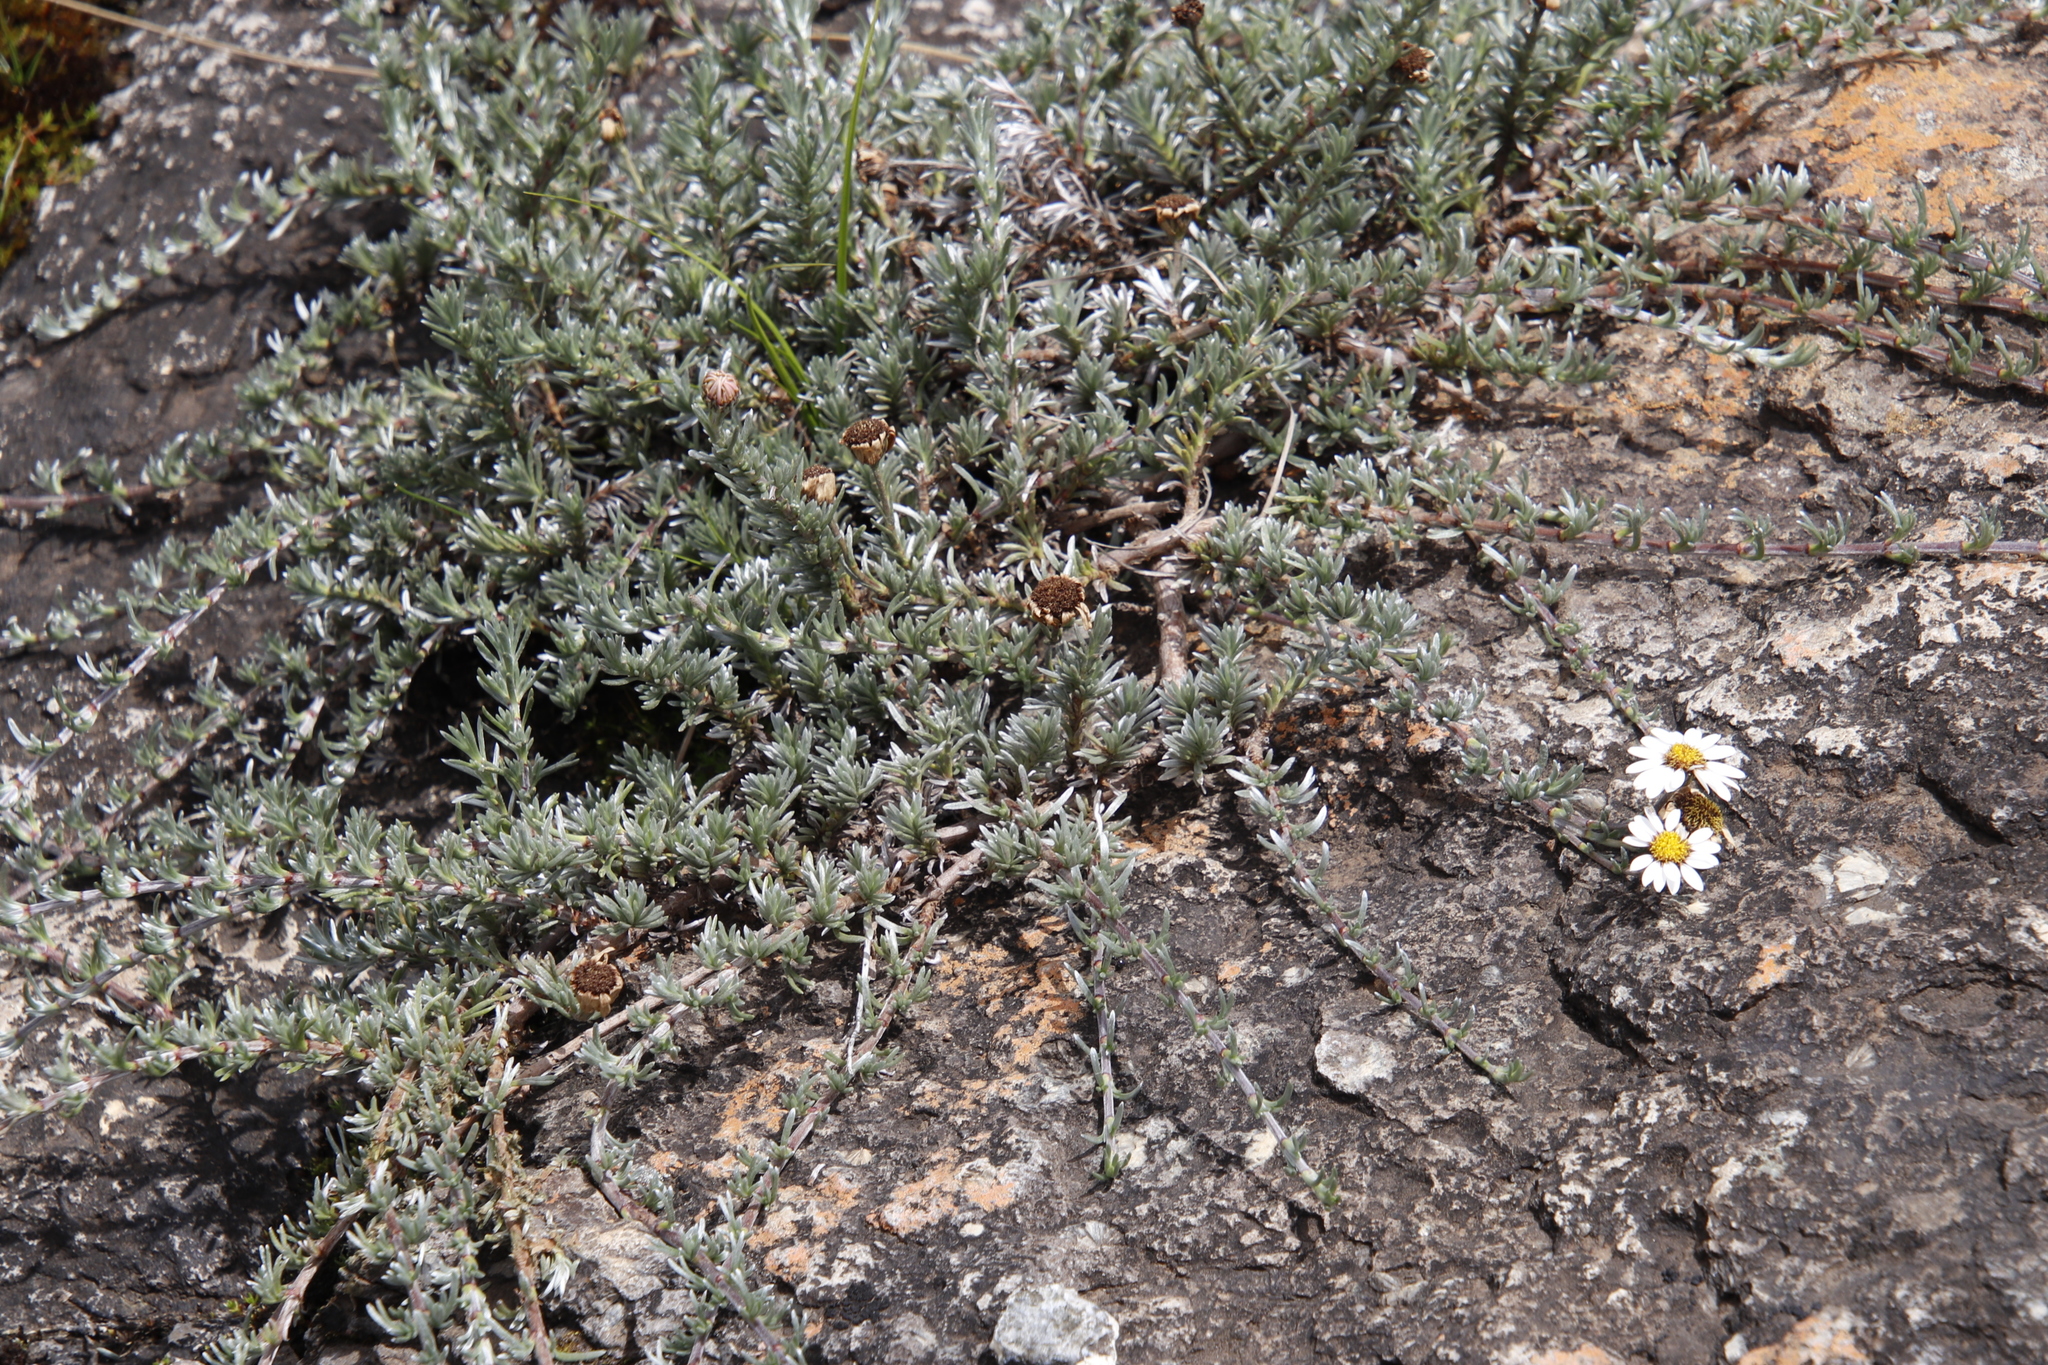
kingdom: Plantae
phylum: Tracheophyta
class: Magnoliopsida
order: Asterales
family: Asteraceae
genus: Eumorphia
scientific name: Eumorphia prostrata
